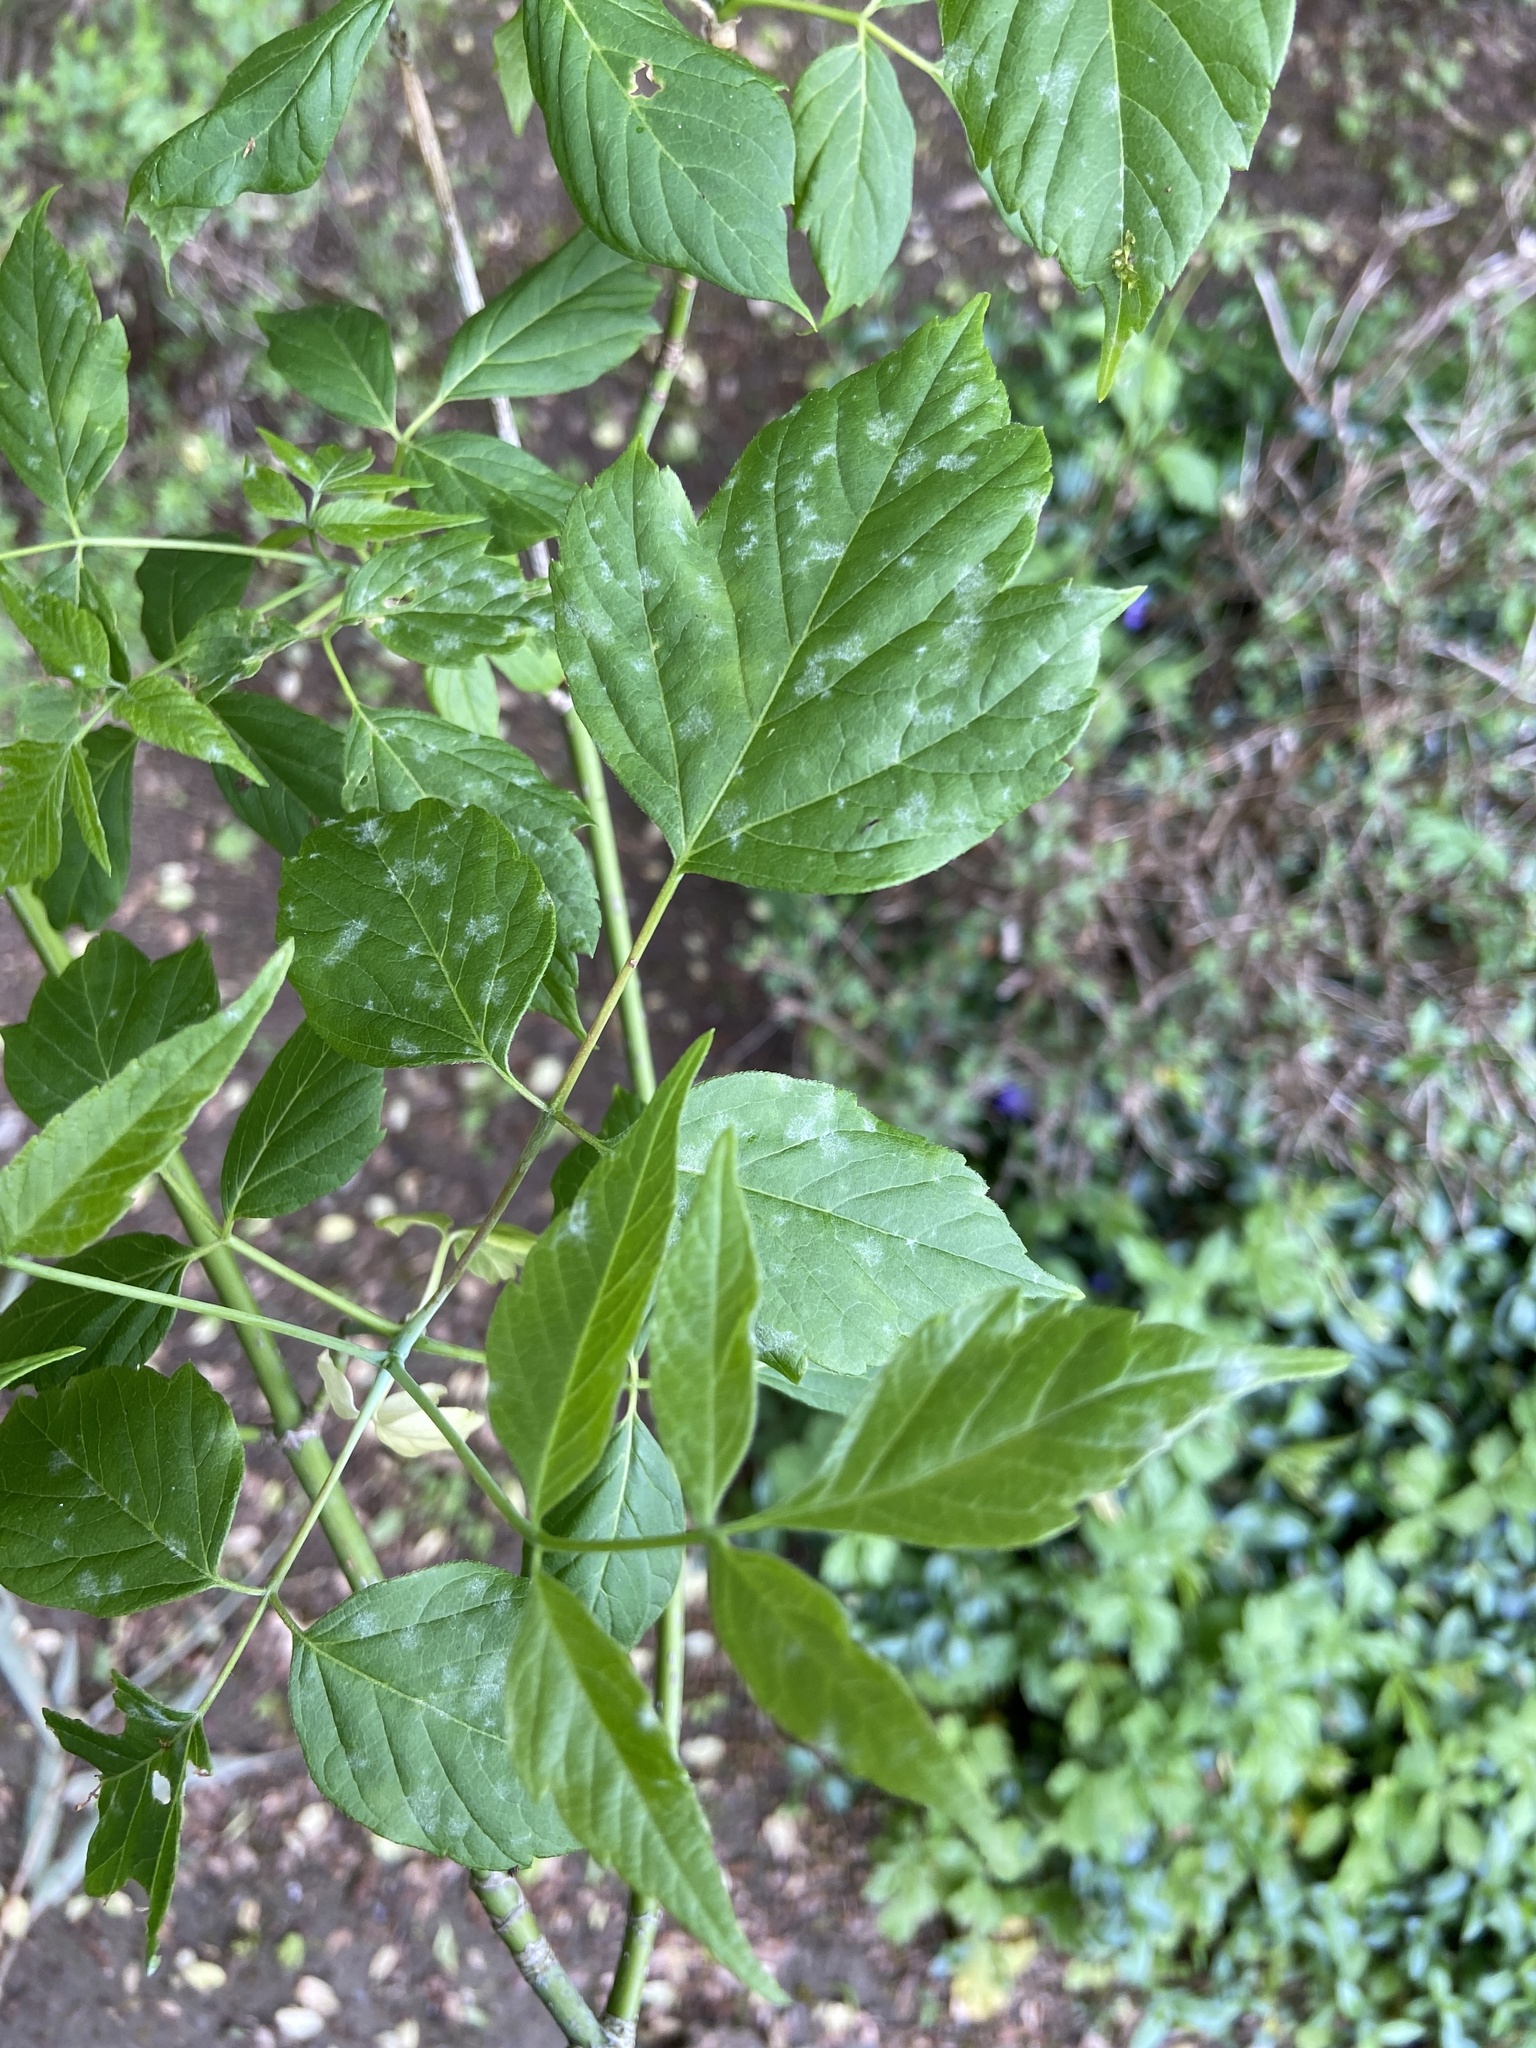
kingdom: Plantae
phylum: Tracheophyta
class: Magnoliopsida
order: Sapindales
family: Sapindaceae
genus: Acer
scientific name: Acer negundo
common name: Ashleaf maple
